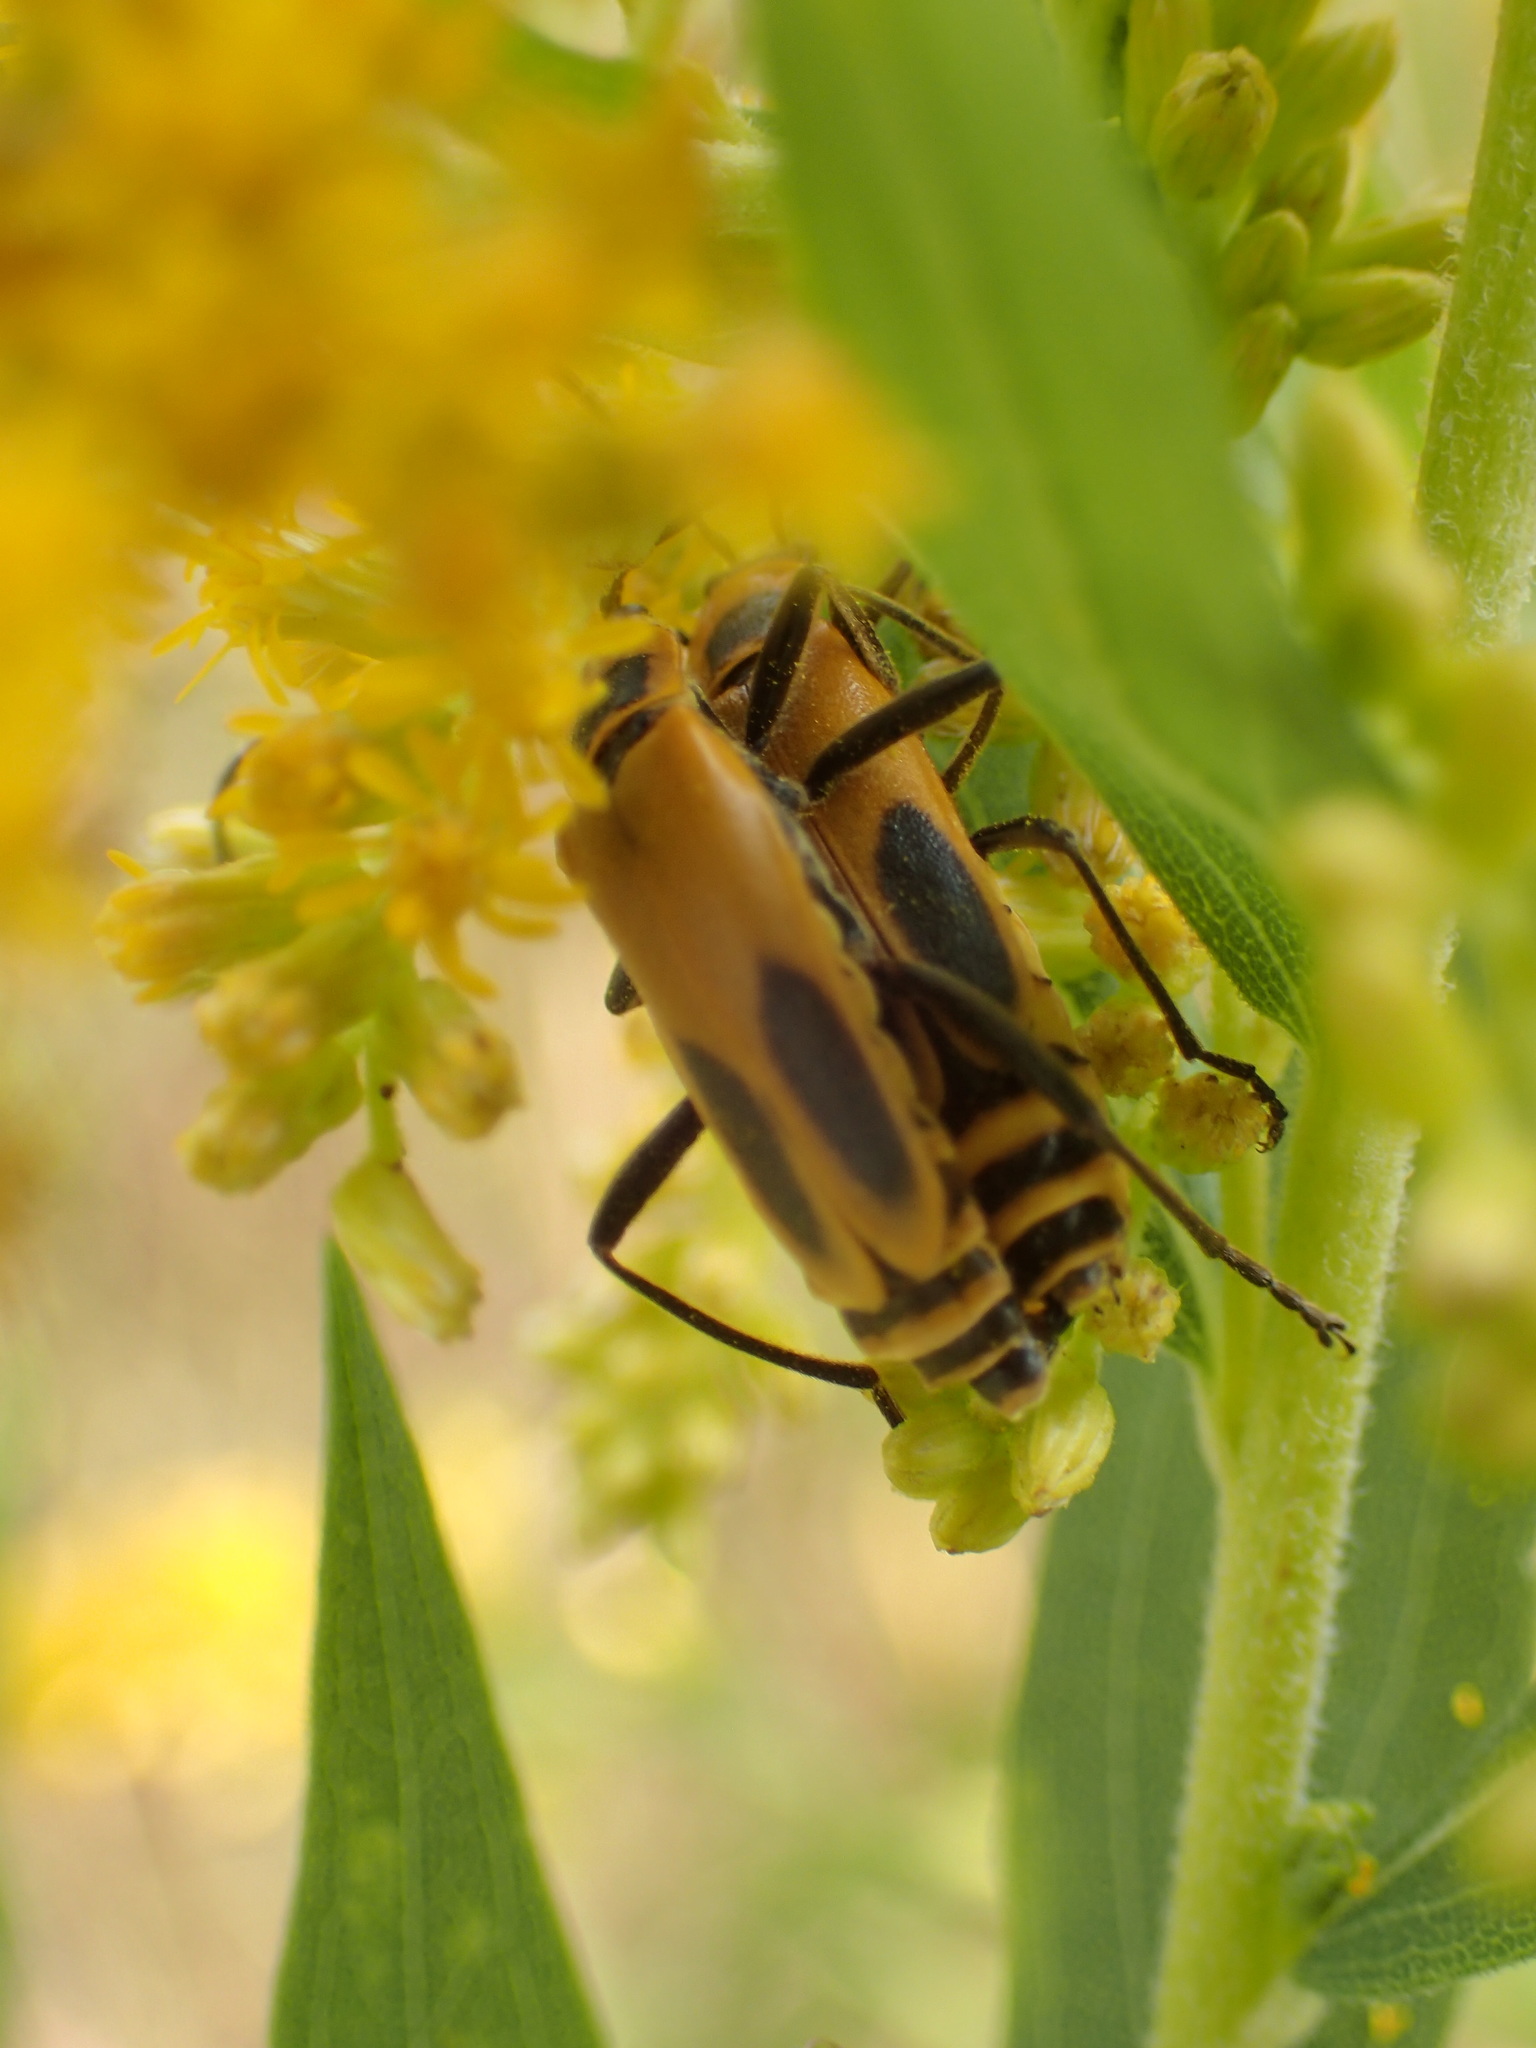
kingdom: Animalia
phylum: Arthropoda
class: Insecta
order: Coleoptera
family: Cantharidae
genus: Chauliognathus
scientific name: Chauliognathus pensylvanicus
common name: Goldenrod soldier beetle
